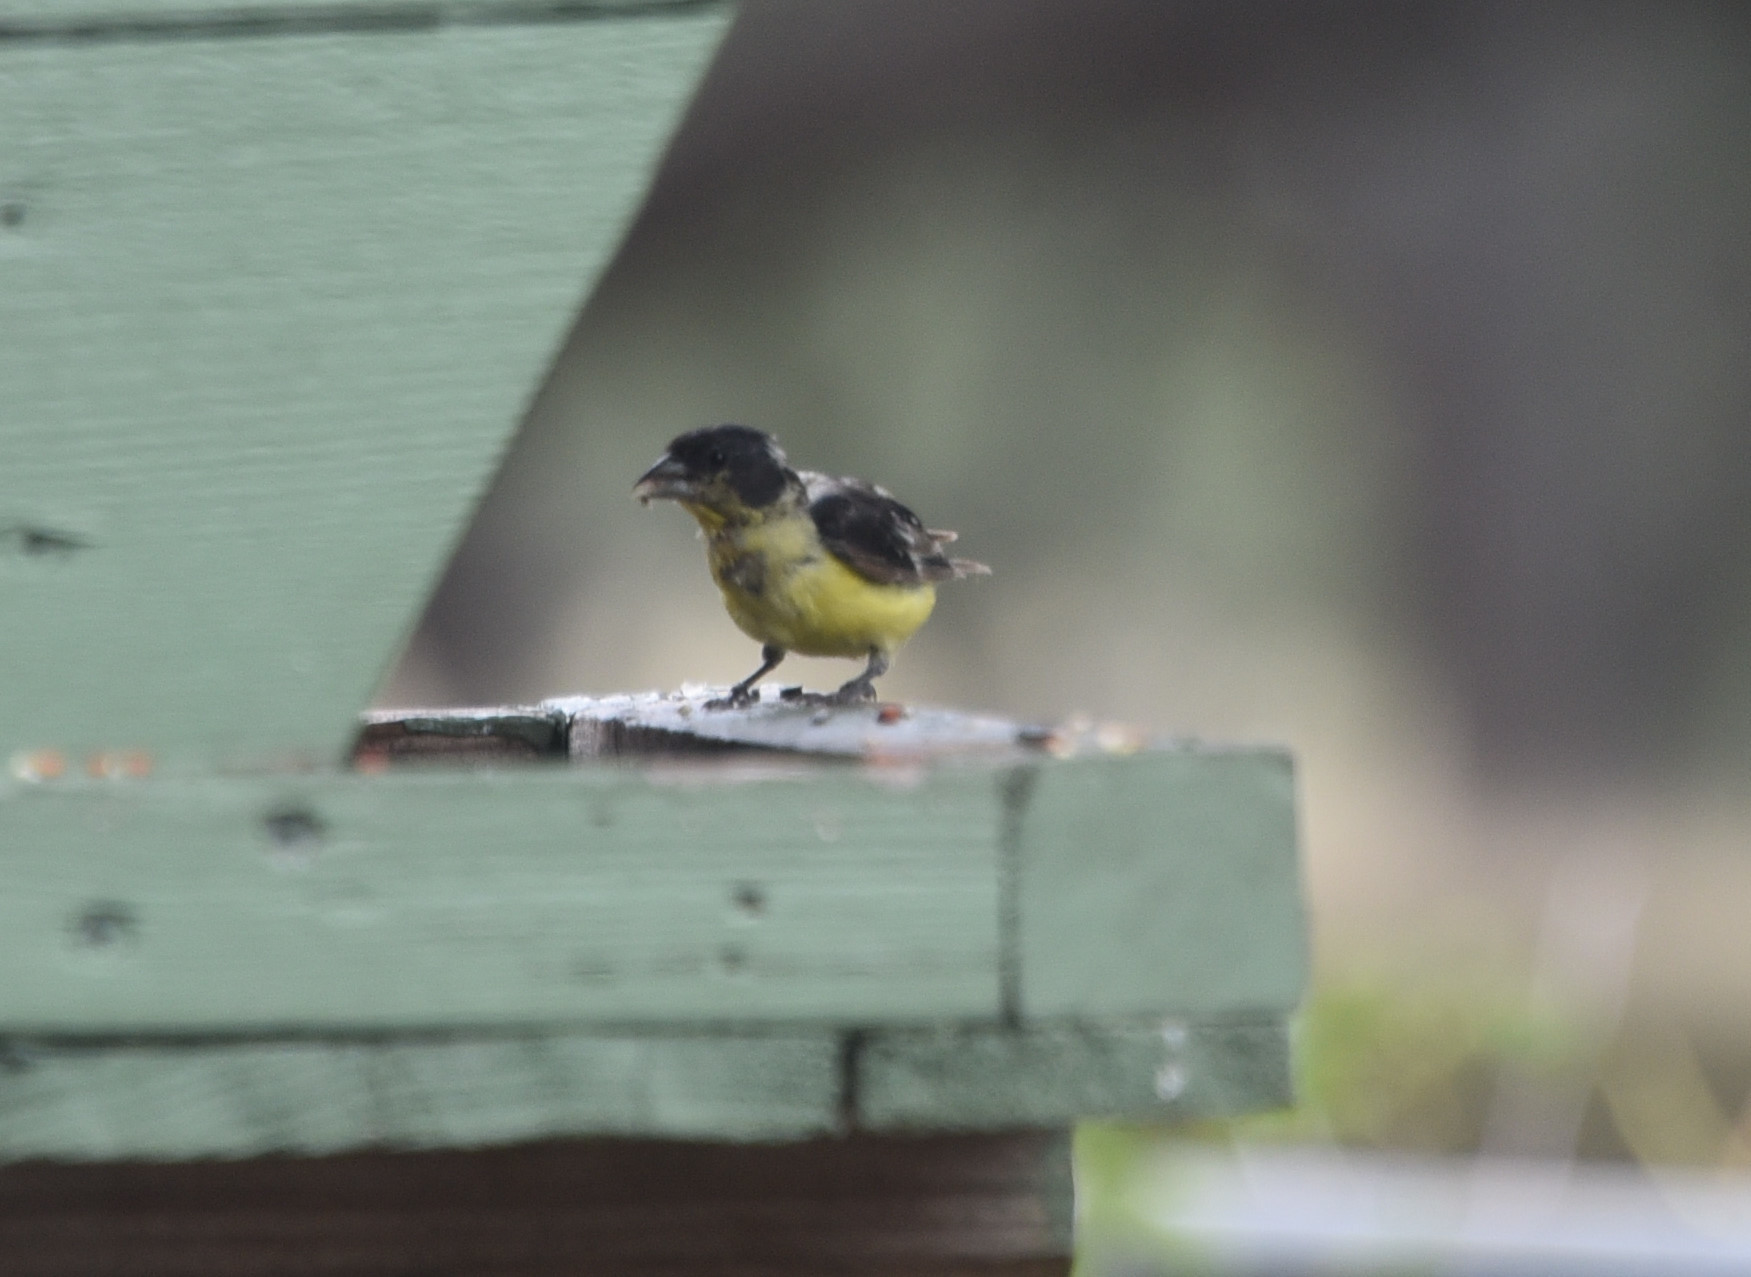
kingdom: Animalia
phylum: Chordata
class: Aves
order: Passeriformes
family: Fringillidae
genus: Spinus
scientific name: Spinus psaltria
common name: Lesser goldfinch
